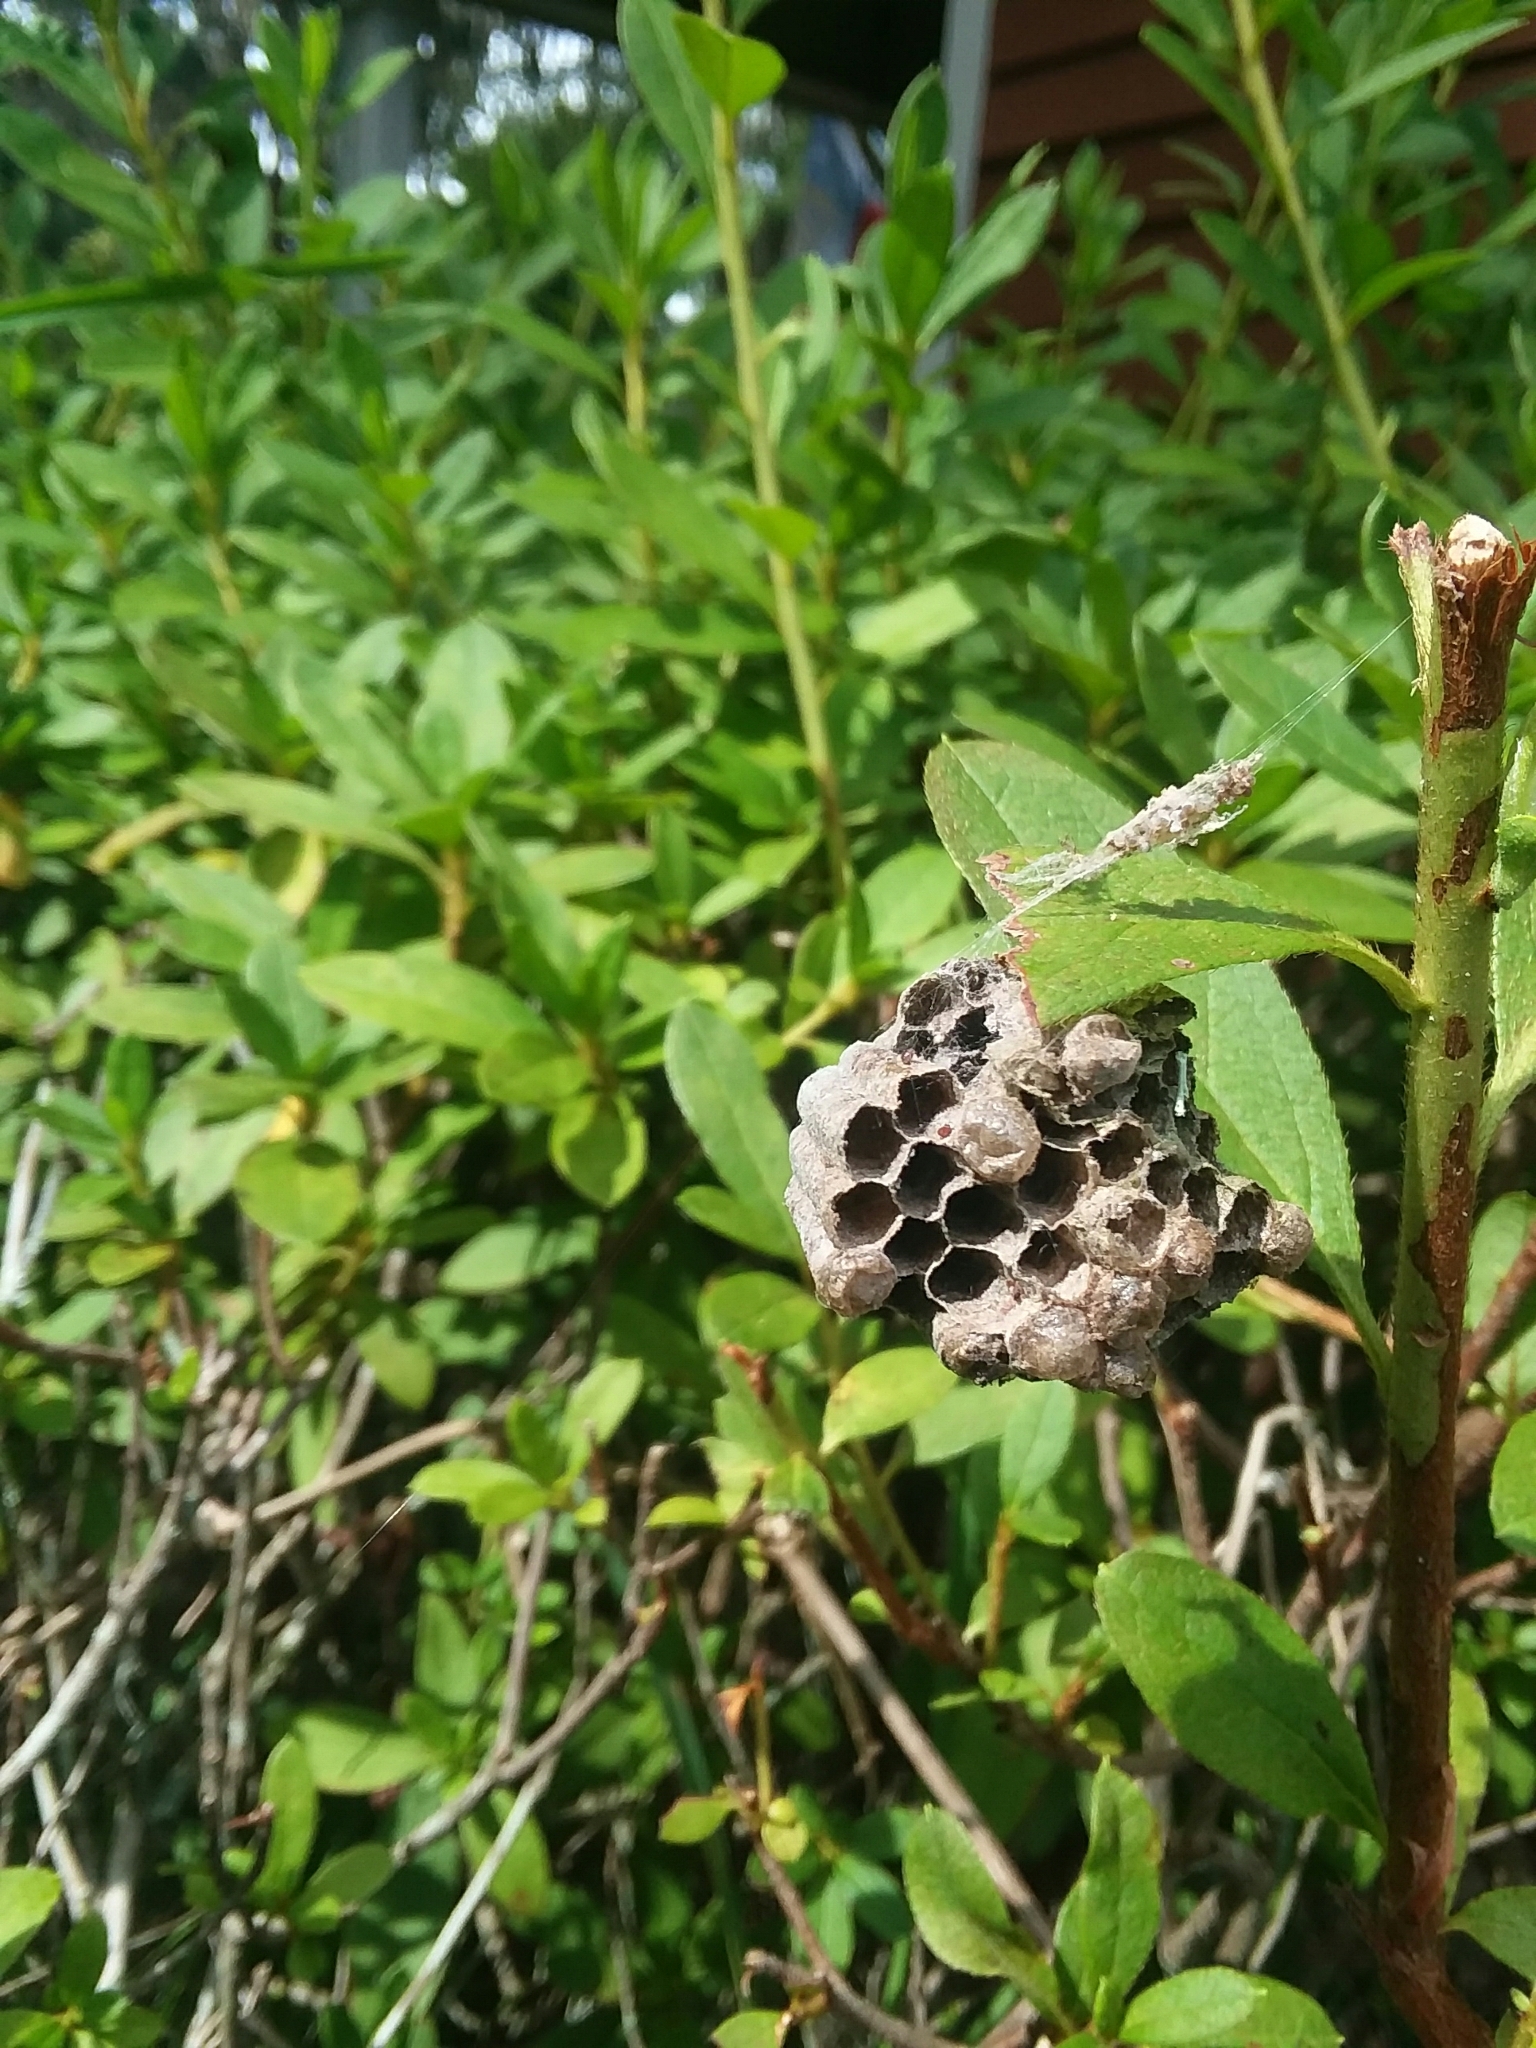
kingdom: Animalia
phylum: Arthropoda
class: Insecta
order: Hymenoptera
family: Eumenidae
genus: Polistes
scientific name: Polistes
